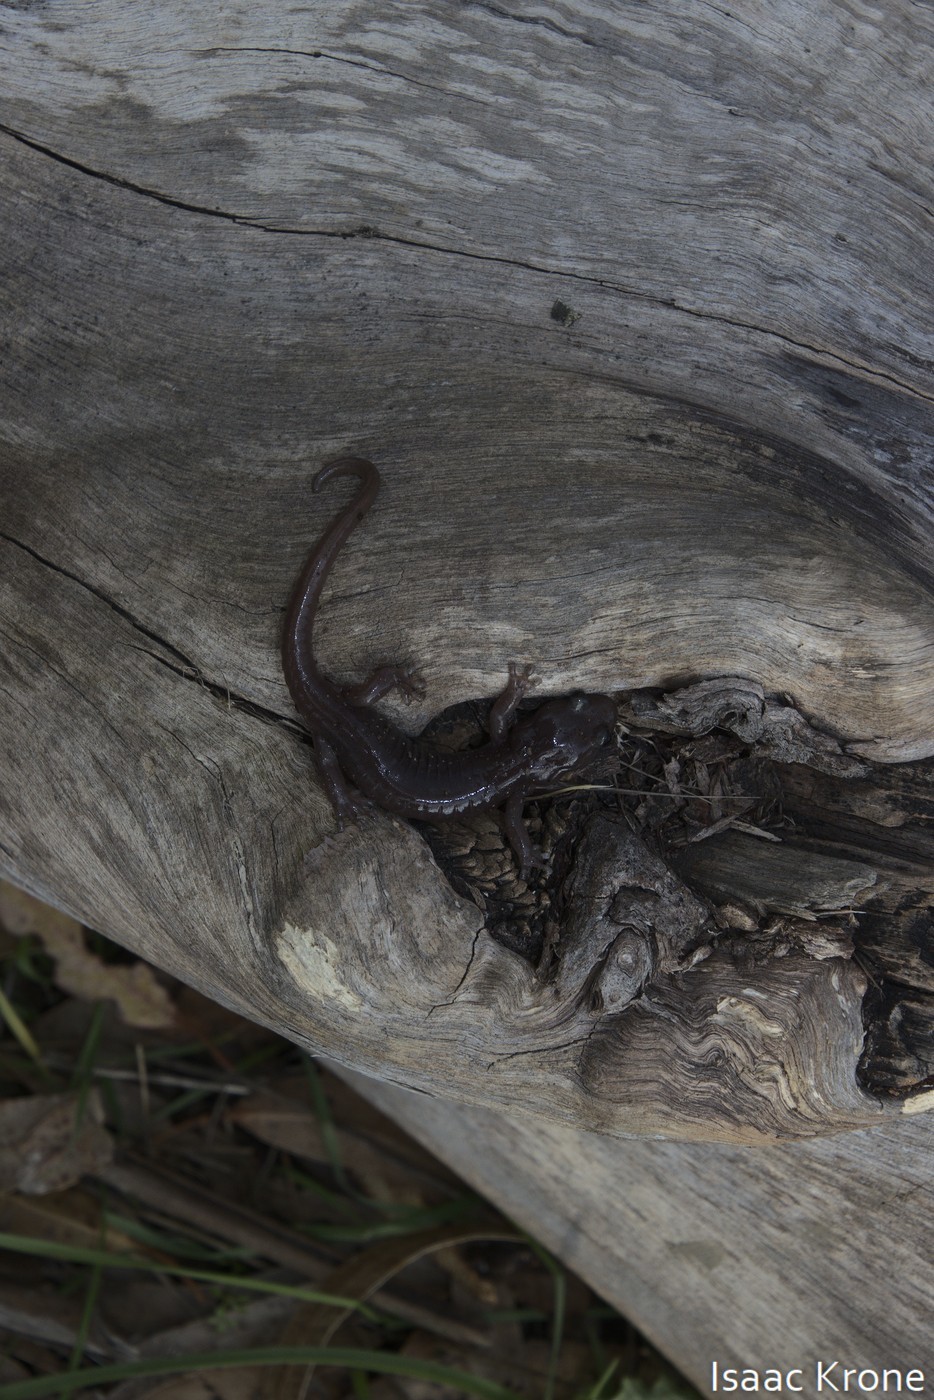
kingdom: Animalia
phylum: Chordata
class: Amphibia
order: Caudata
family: Plethodontidae
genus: Aneides
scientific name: Aneides lugubris
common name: Arboreal salamander
